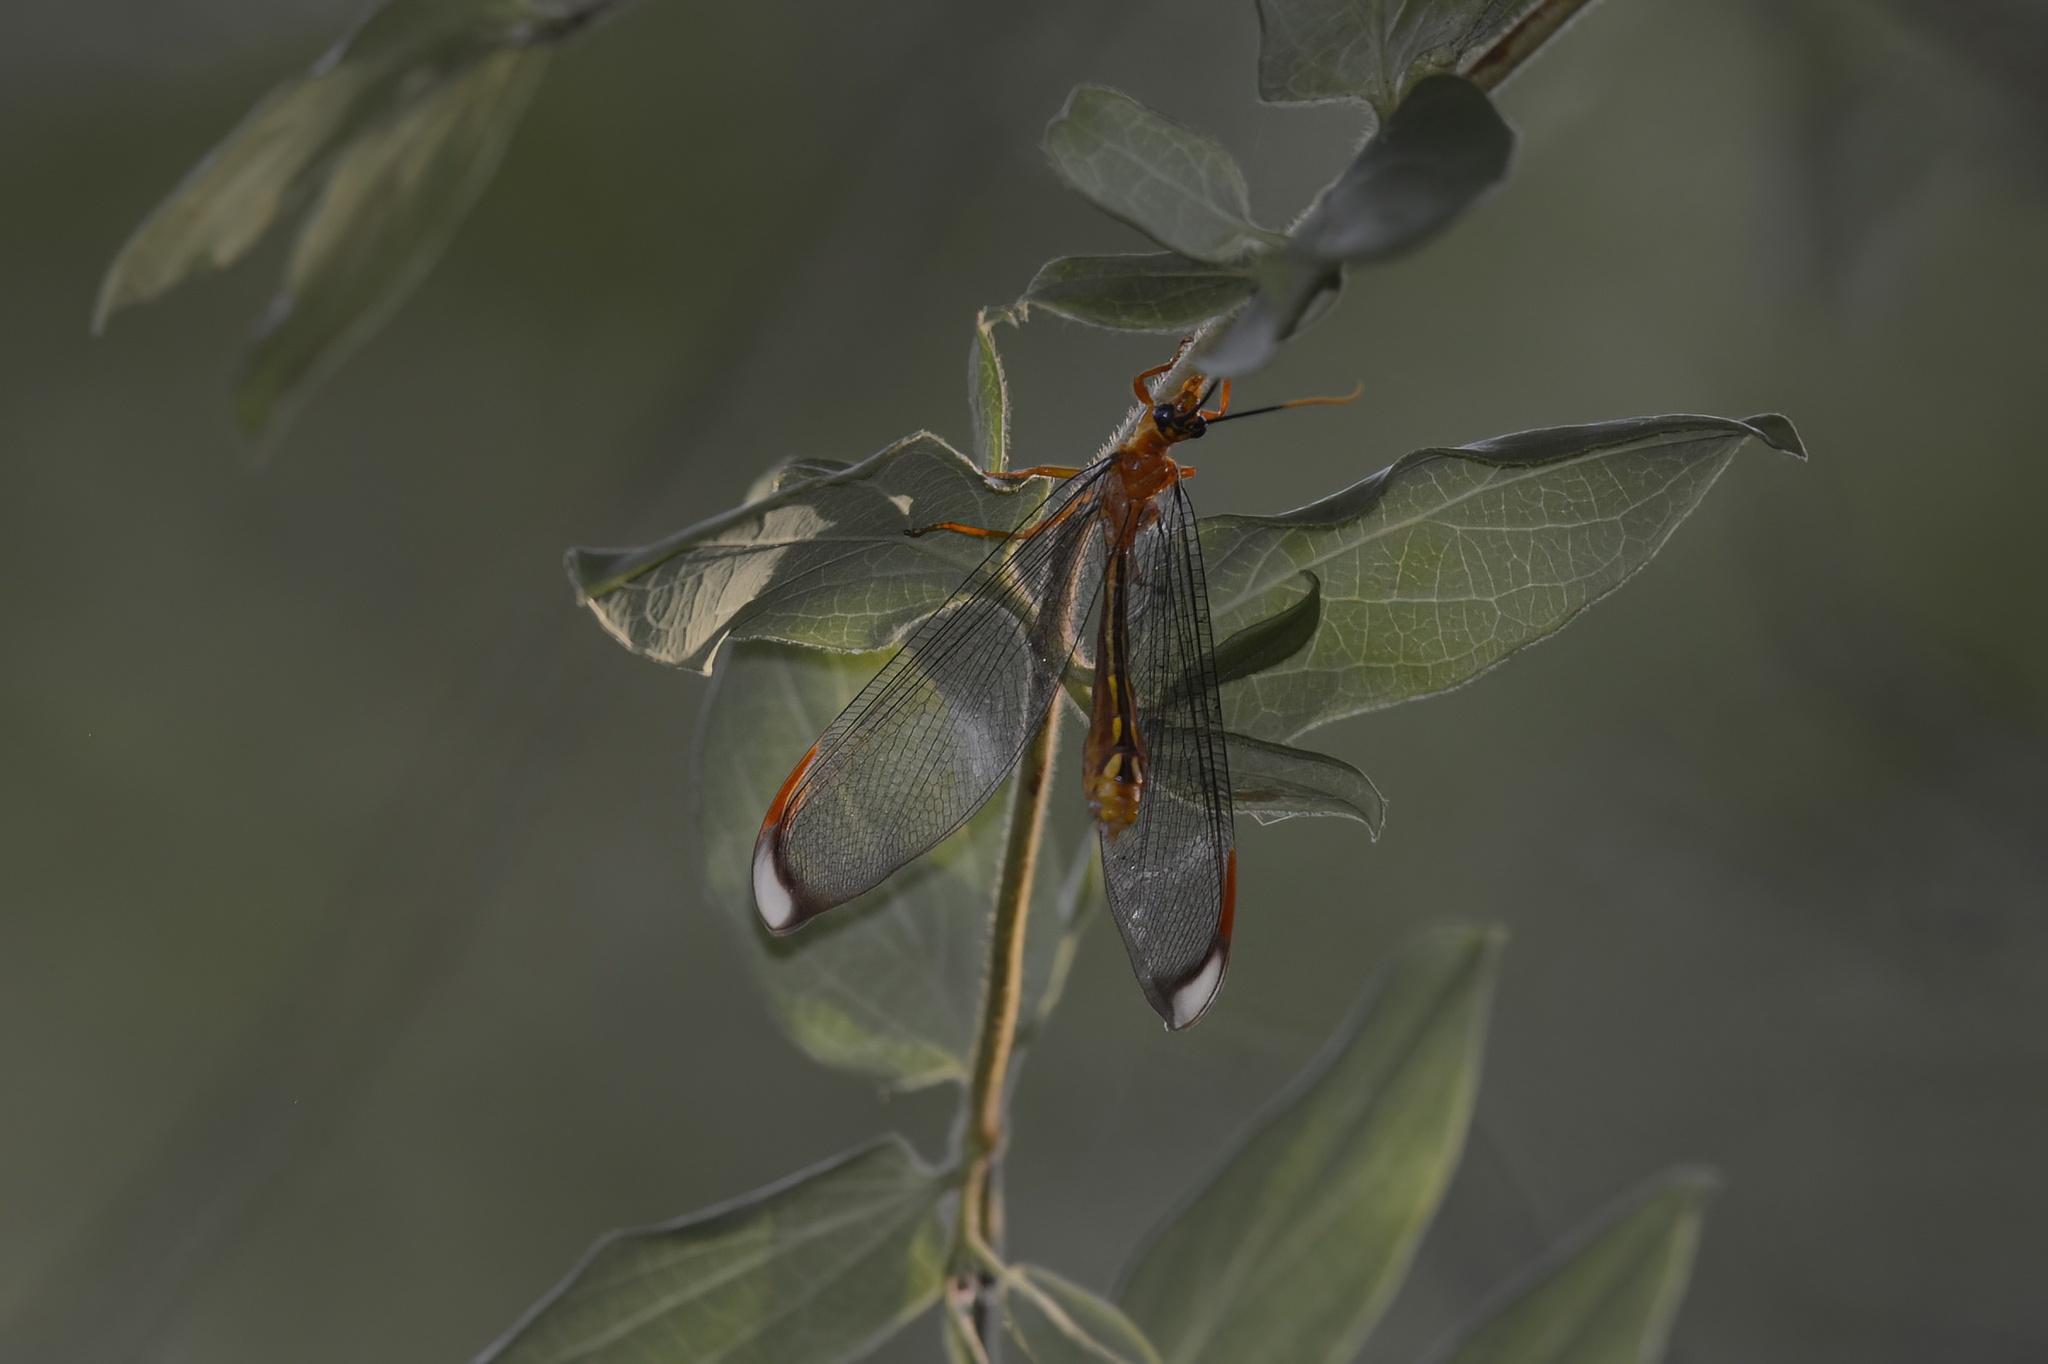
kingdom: Animalia
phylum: Arthropoda
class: Insecta
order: Neuroptera
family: Nymphidae
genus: Nymphes
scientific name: Nymphes myrmeleonoides
